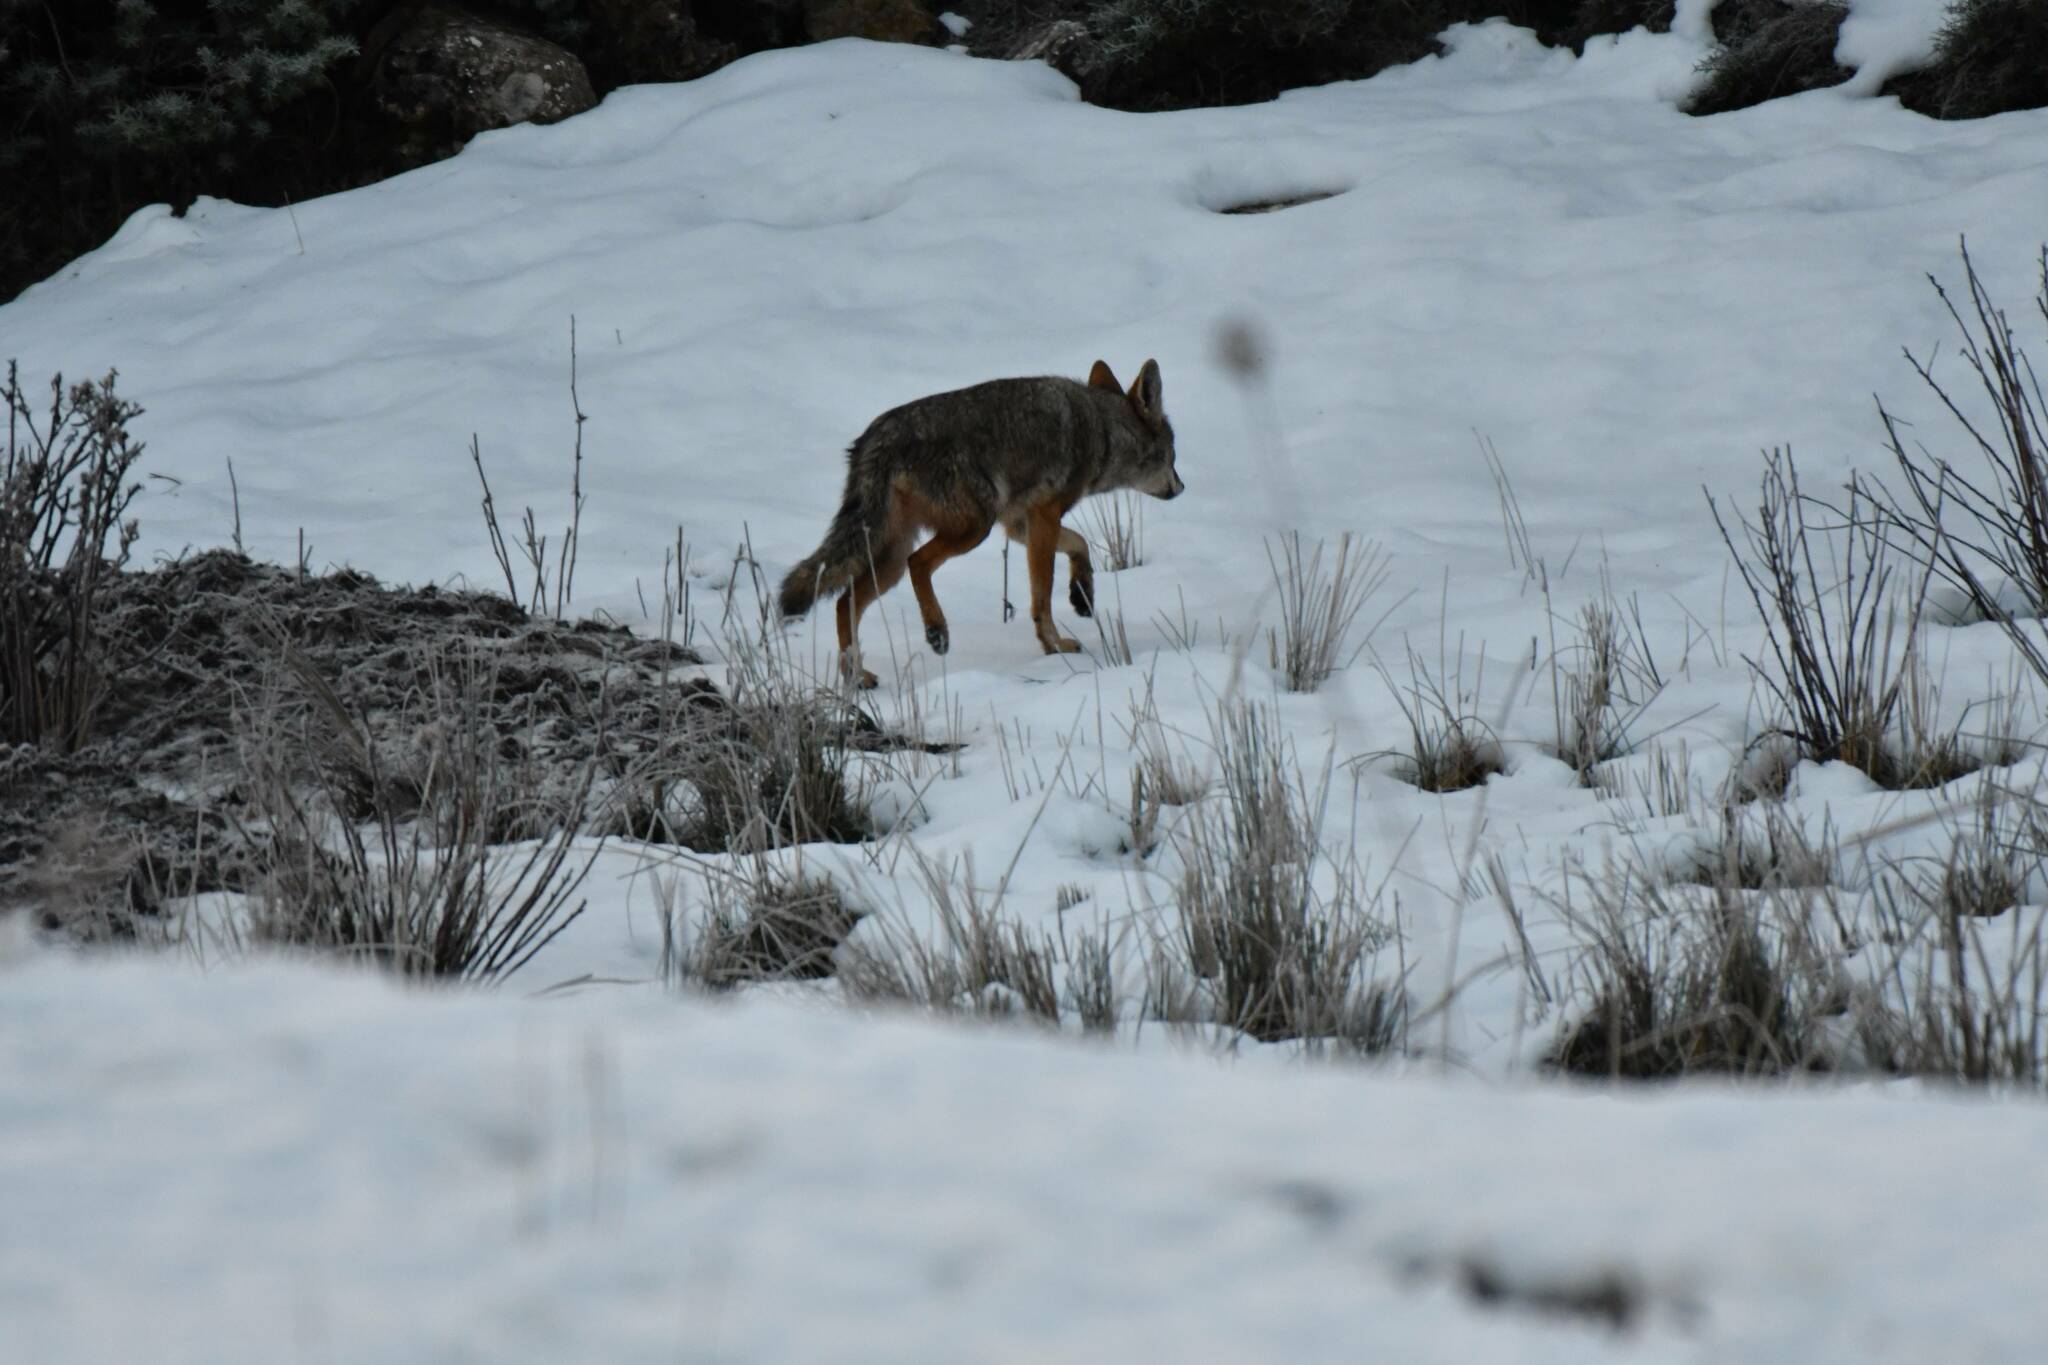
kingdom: Animalia
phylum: Chordata
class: Mammalia
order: Carnivora
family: Canidae
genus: Canis
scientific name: Canis lupaster
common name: African golden wolf
